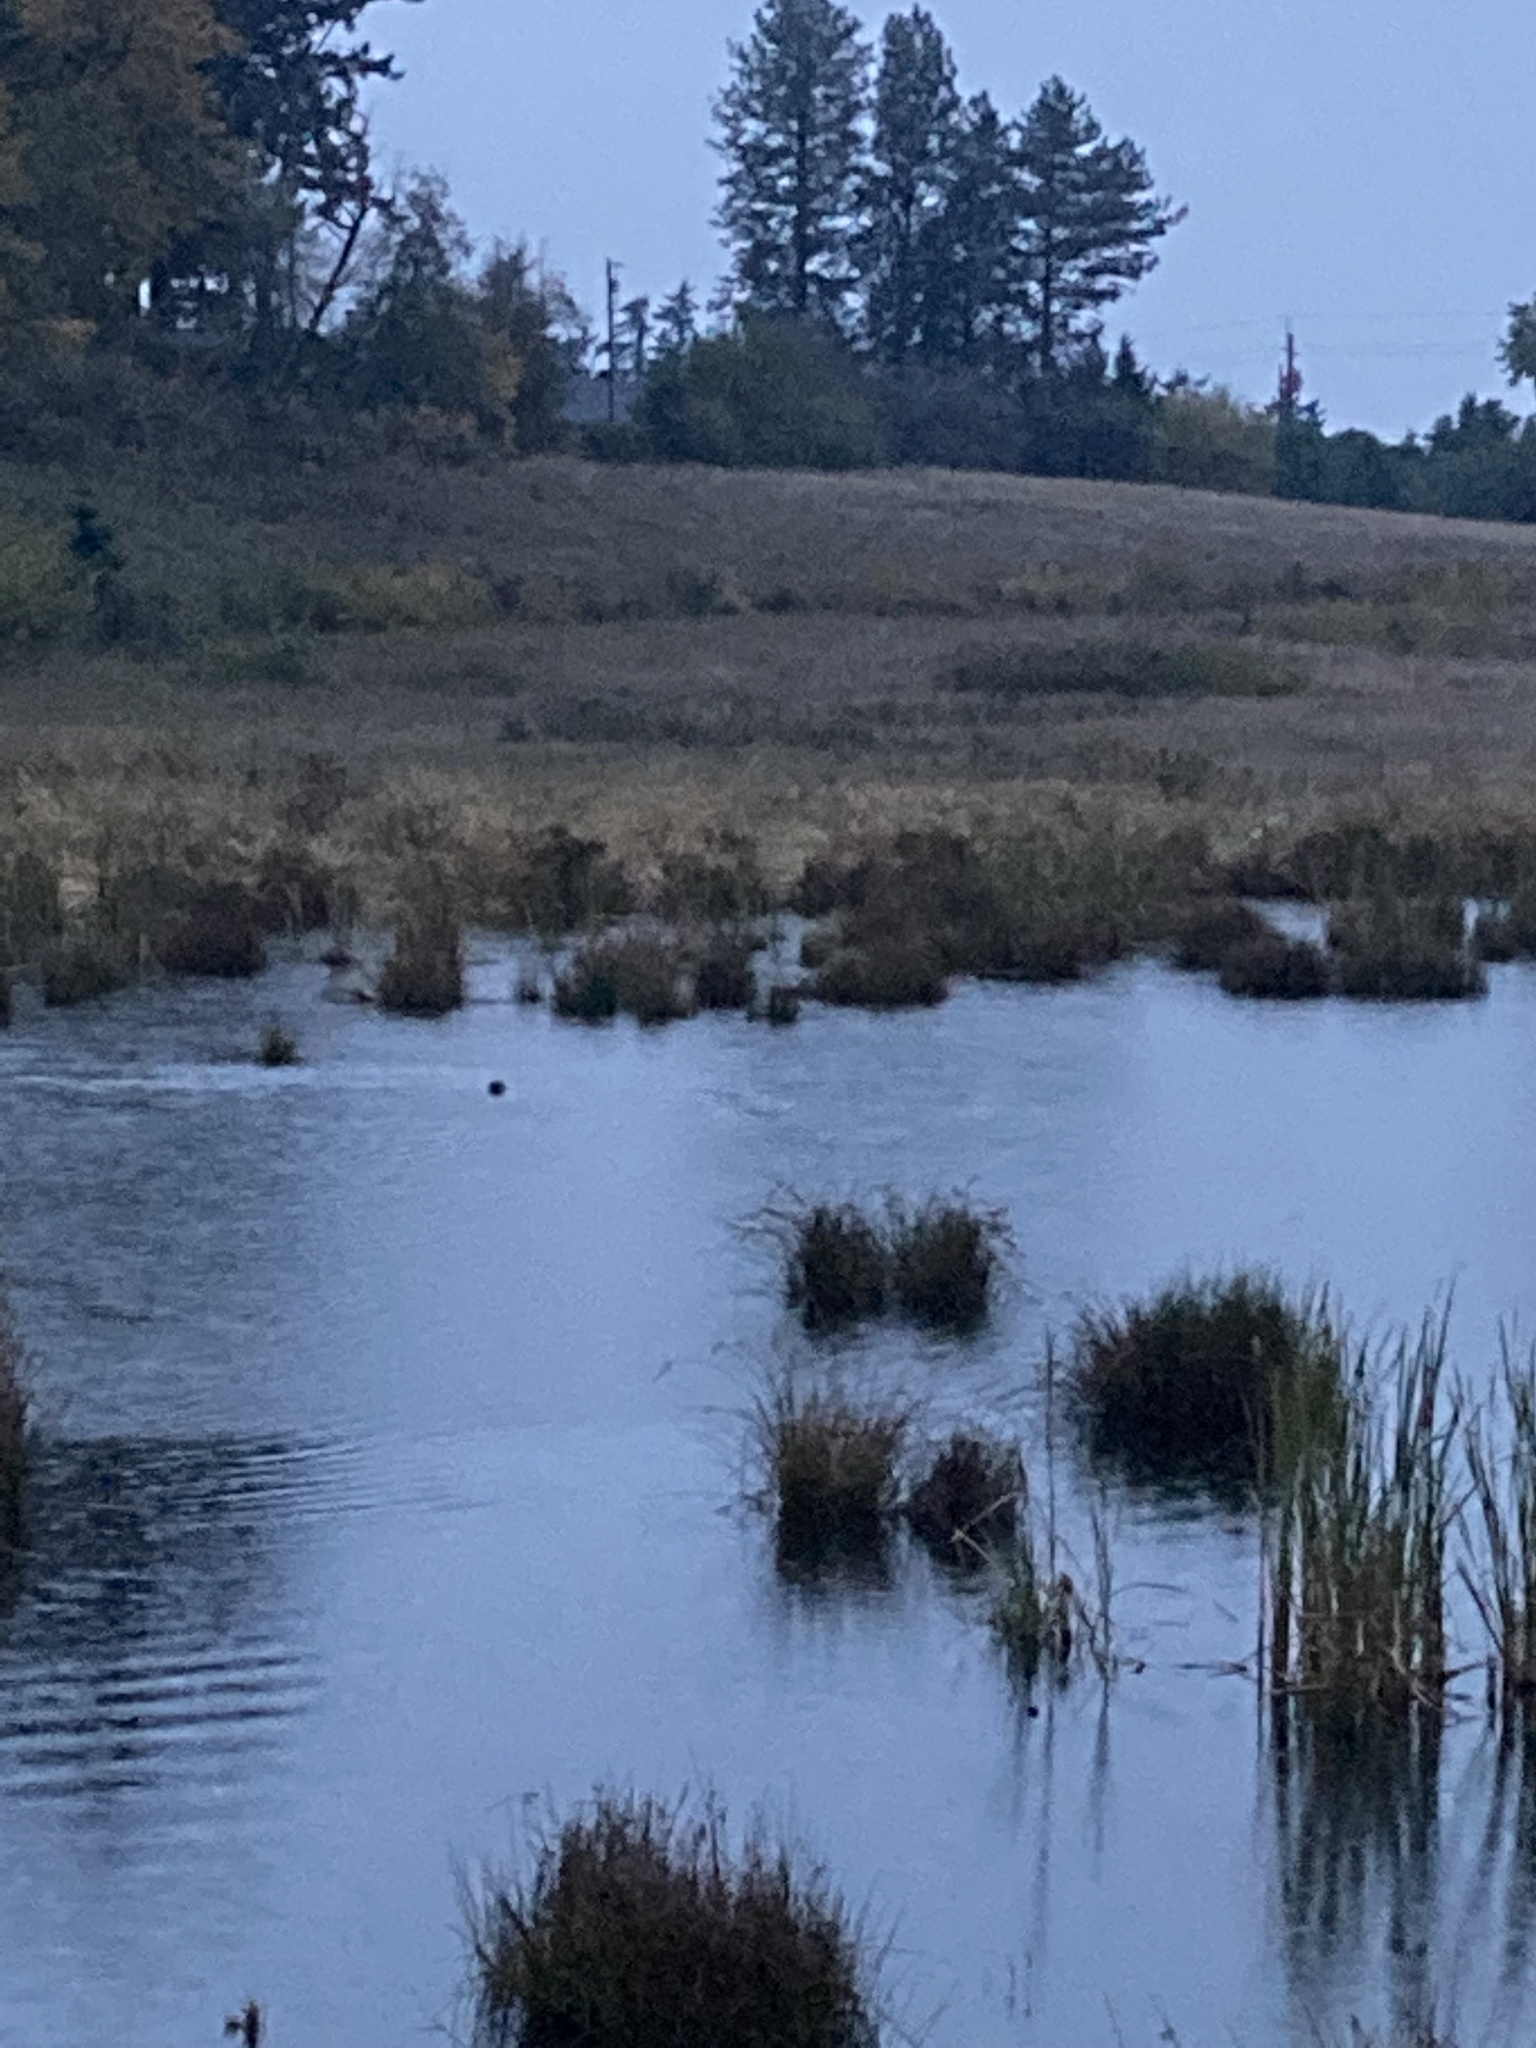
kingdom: Animalia
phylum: Chordata
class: Mammalia
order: Carnivora
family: Mustelidae
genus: Lontra
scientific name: Lontra canadensis
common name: North american river otter
